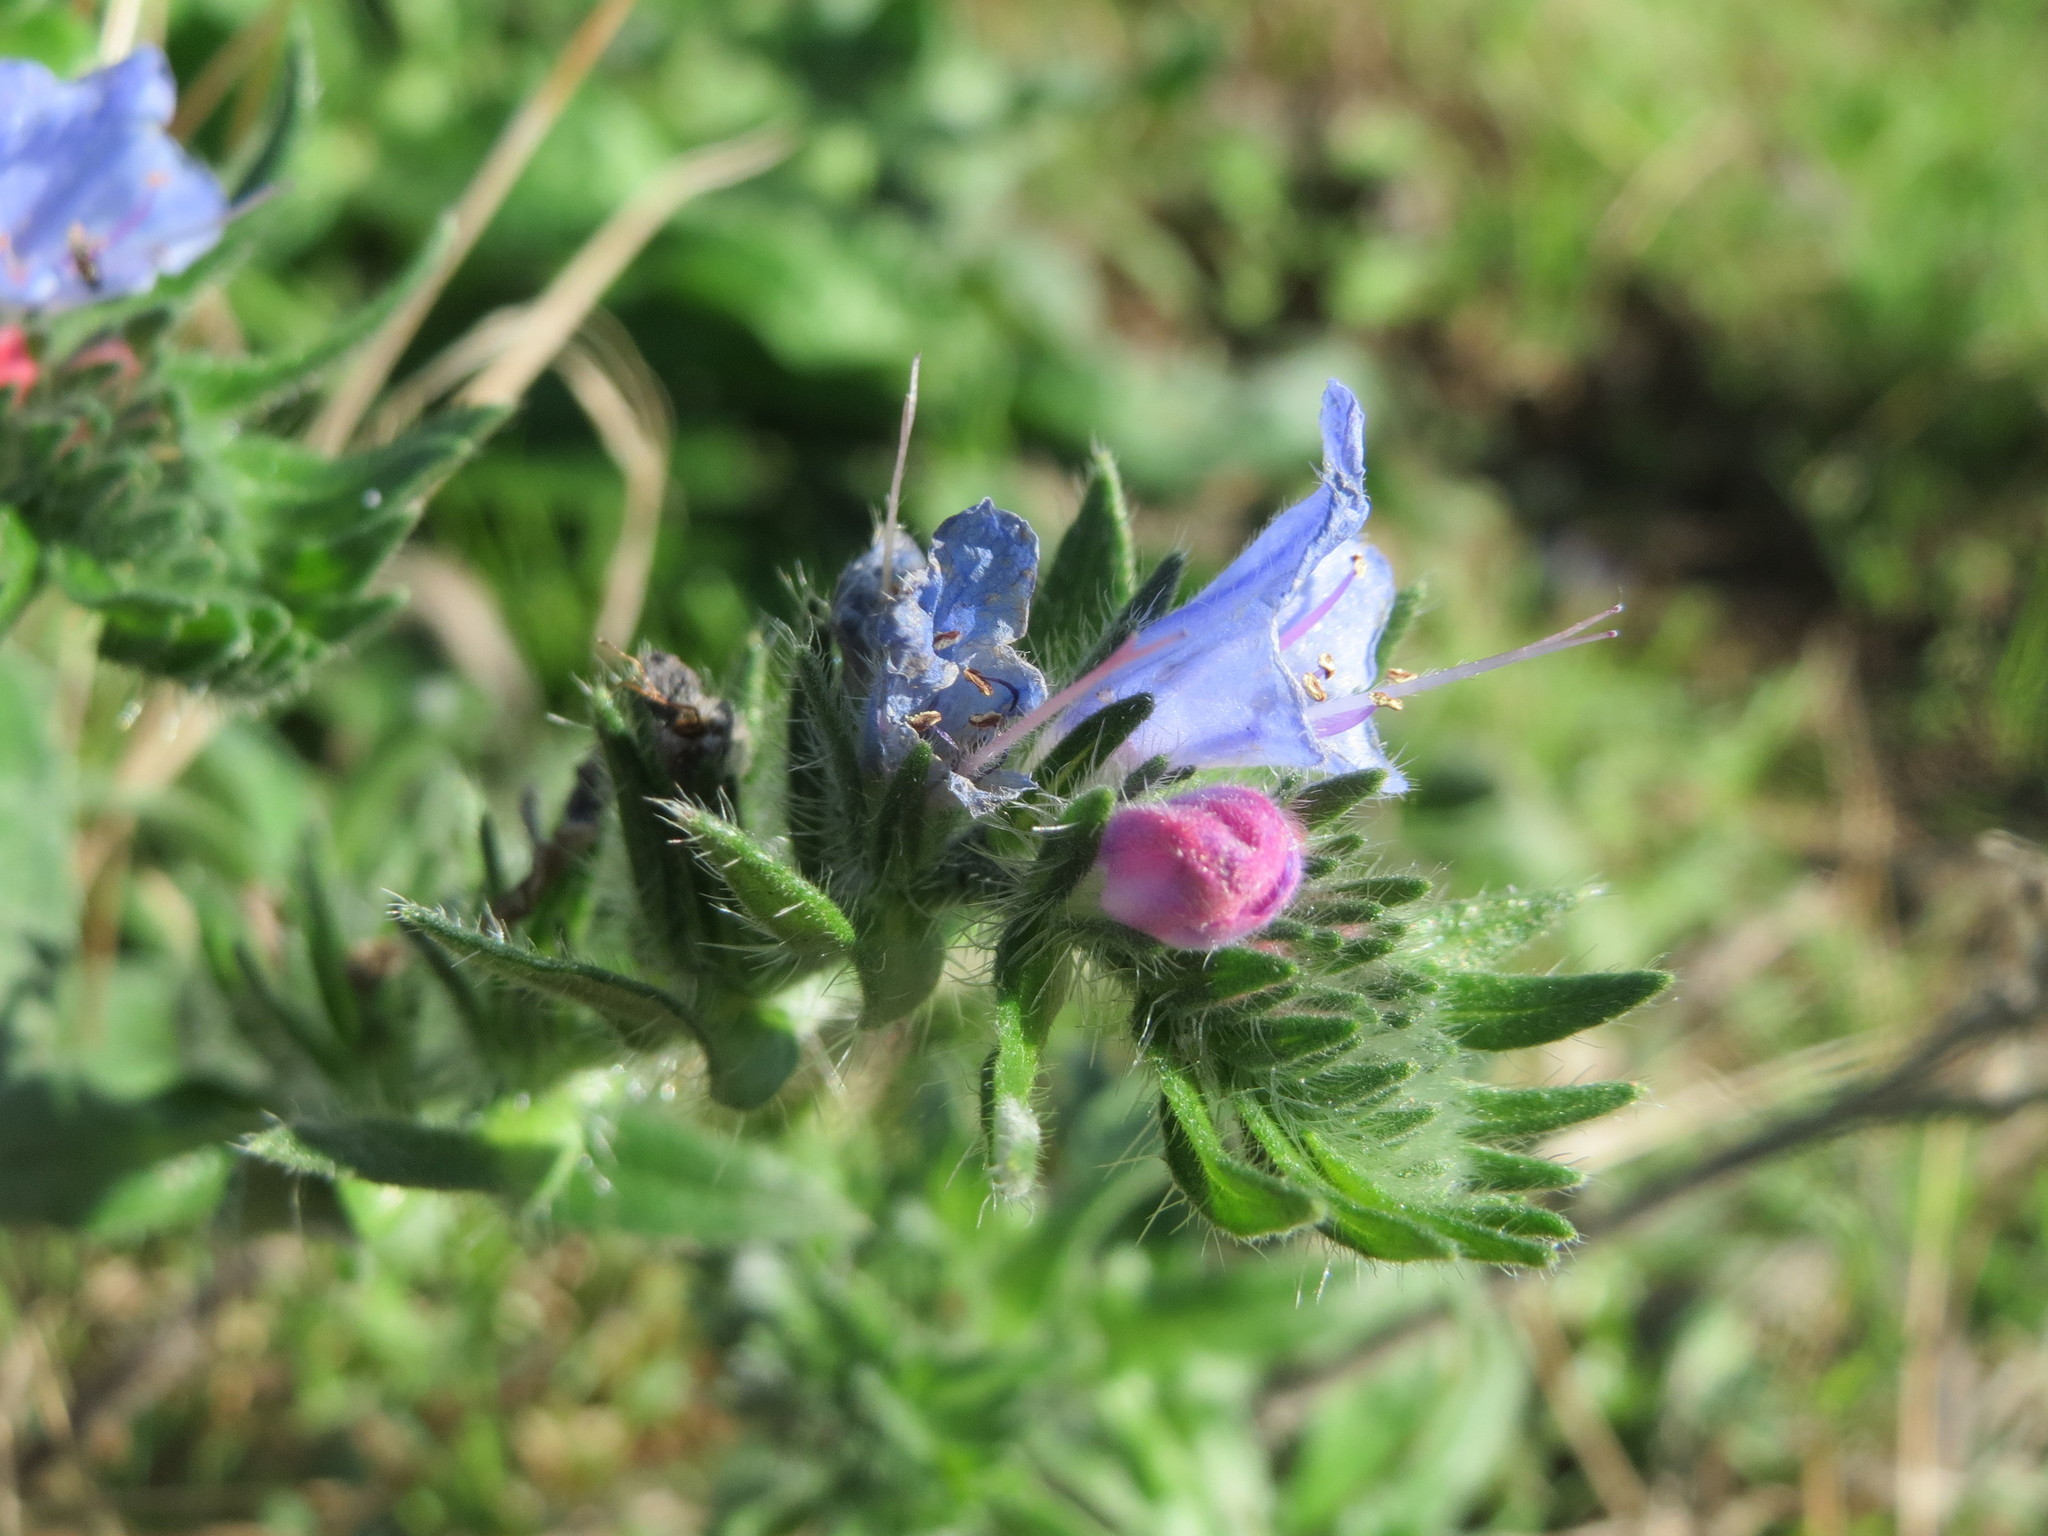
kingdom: Plantae
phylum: Tracheophyta
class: Magnoliopsida
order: Boraginales
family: Boraginaceae
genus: Echium
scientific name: Echium vulgare
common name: Common viper's bugloss
